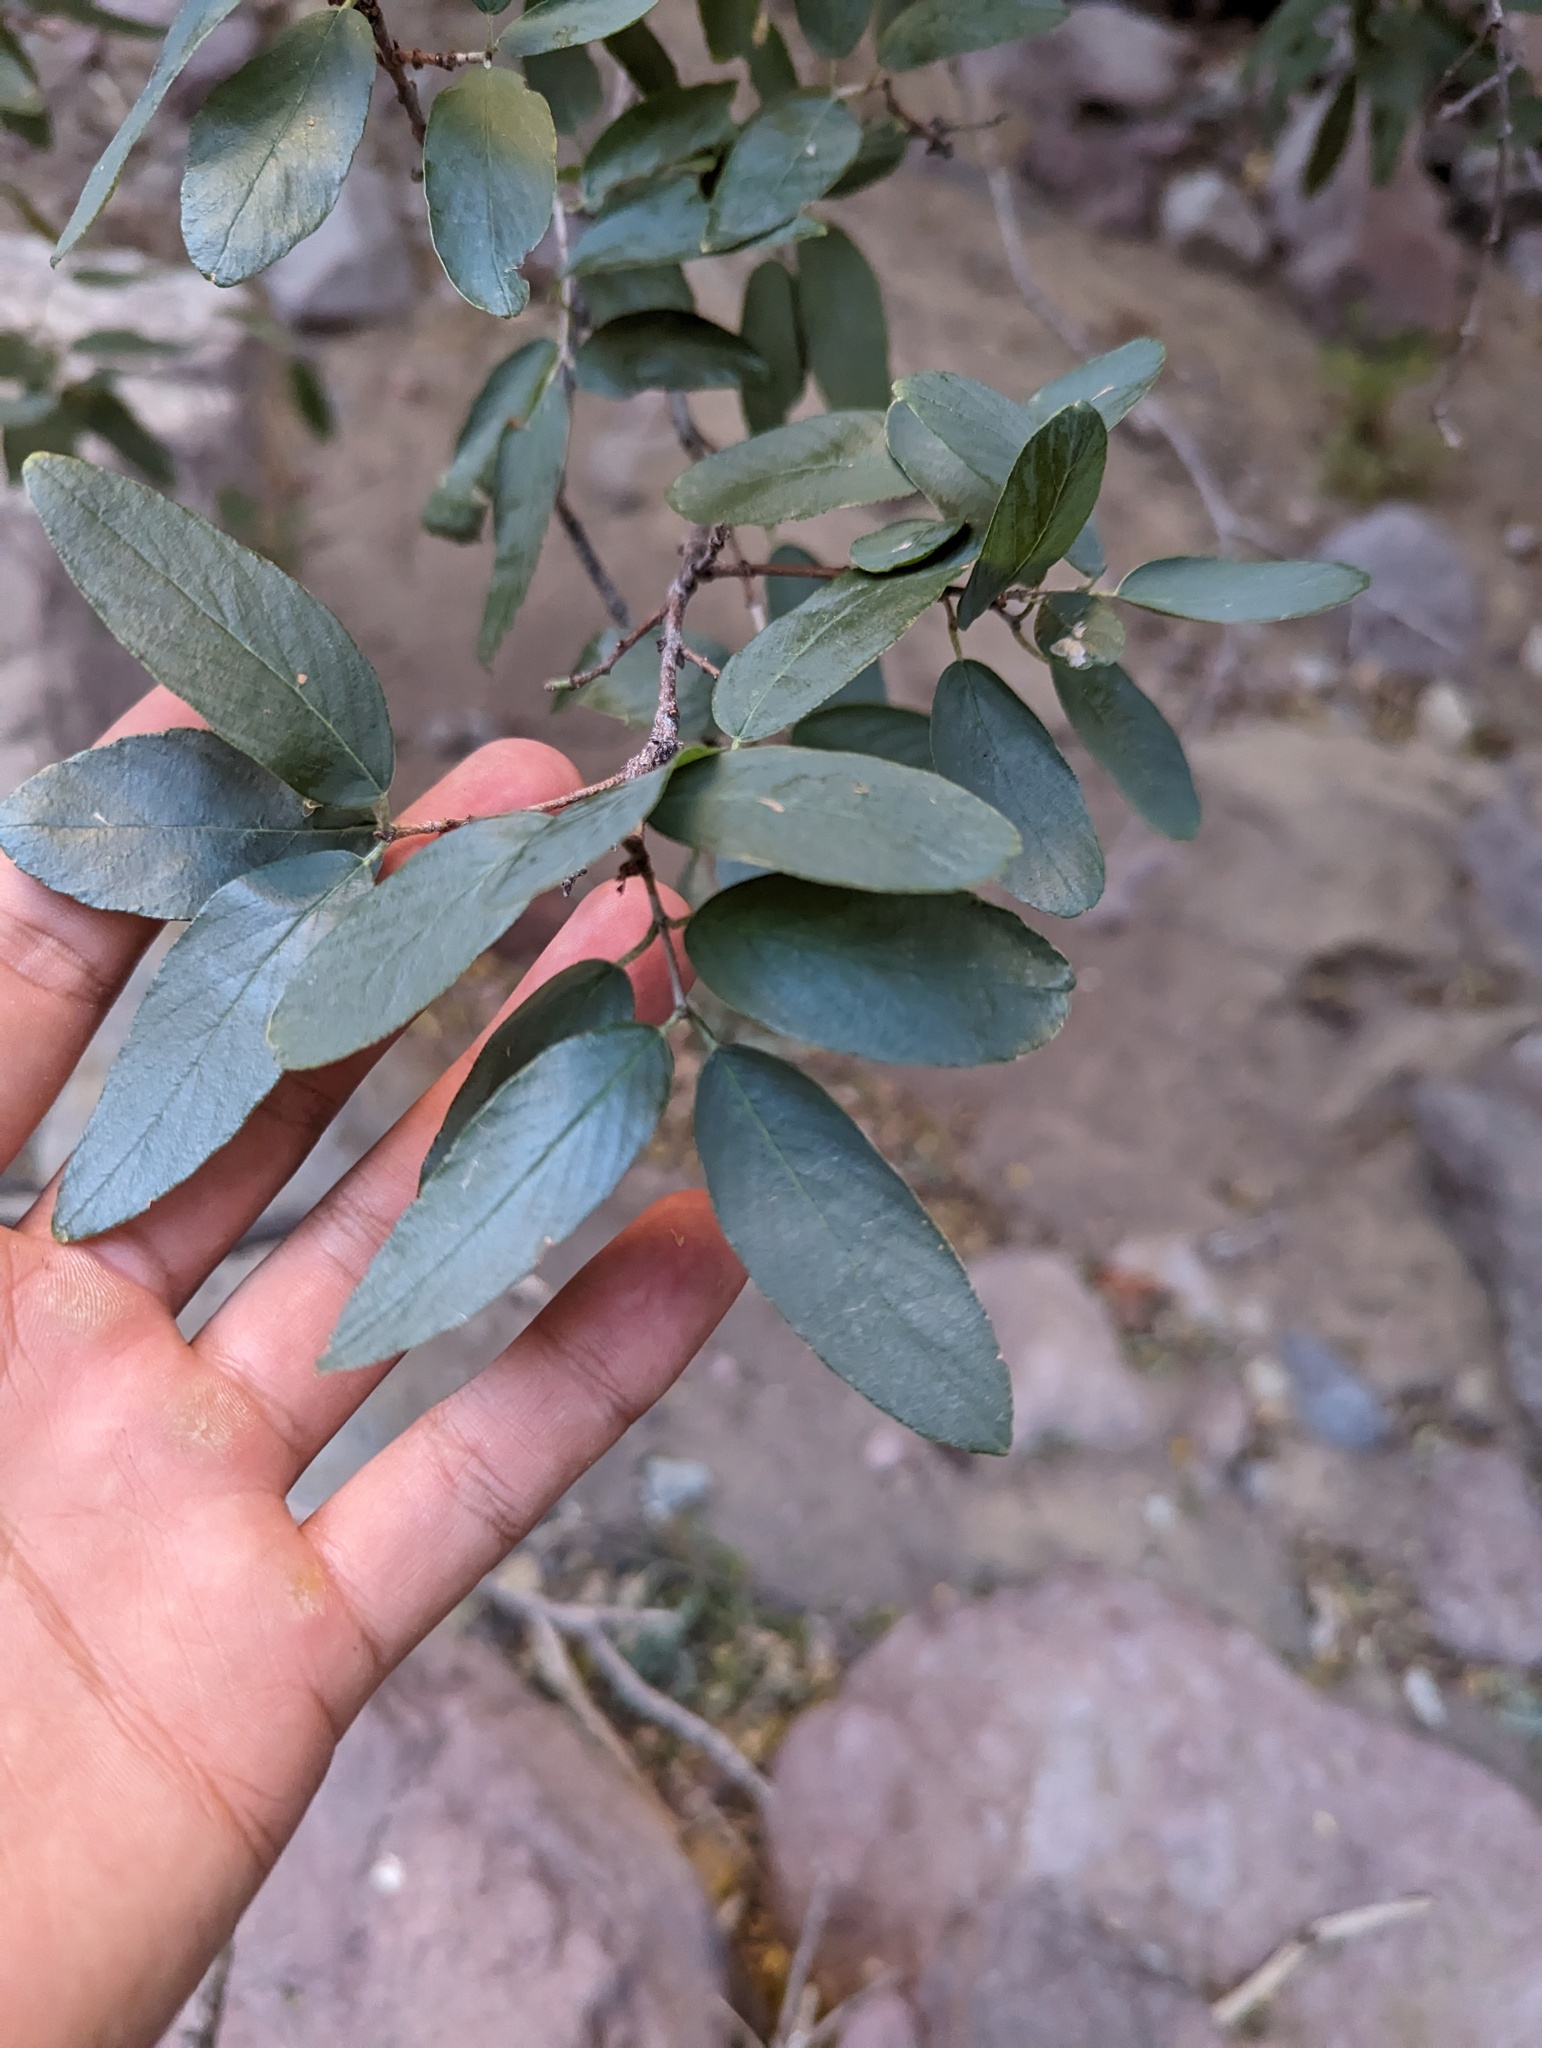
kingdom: Plantae
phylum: Tracheophyta
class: Magnoliopsida
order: Rosales
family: Rhamnaceae
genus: Karwinskia
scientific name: Karwinskia humboldtiana
